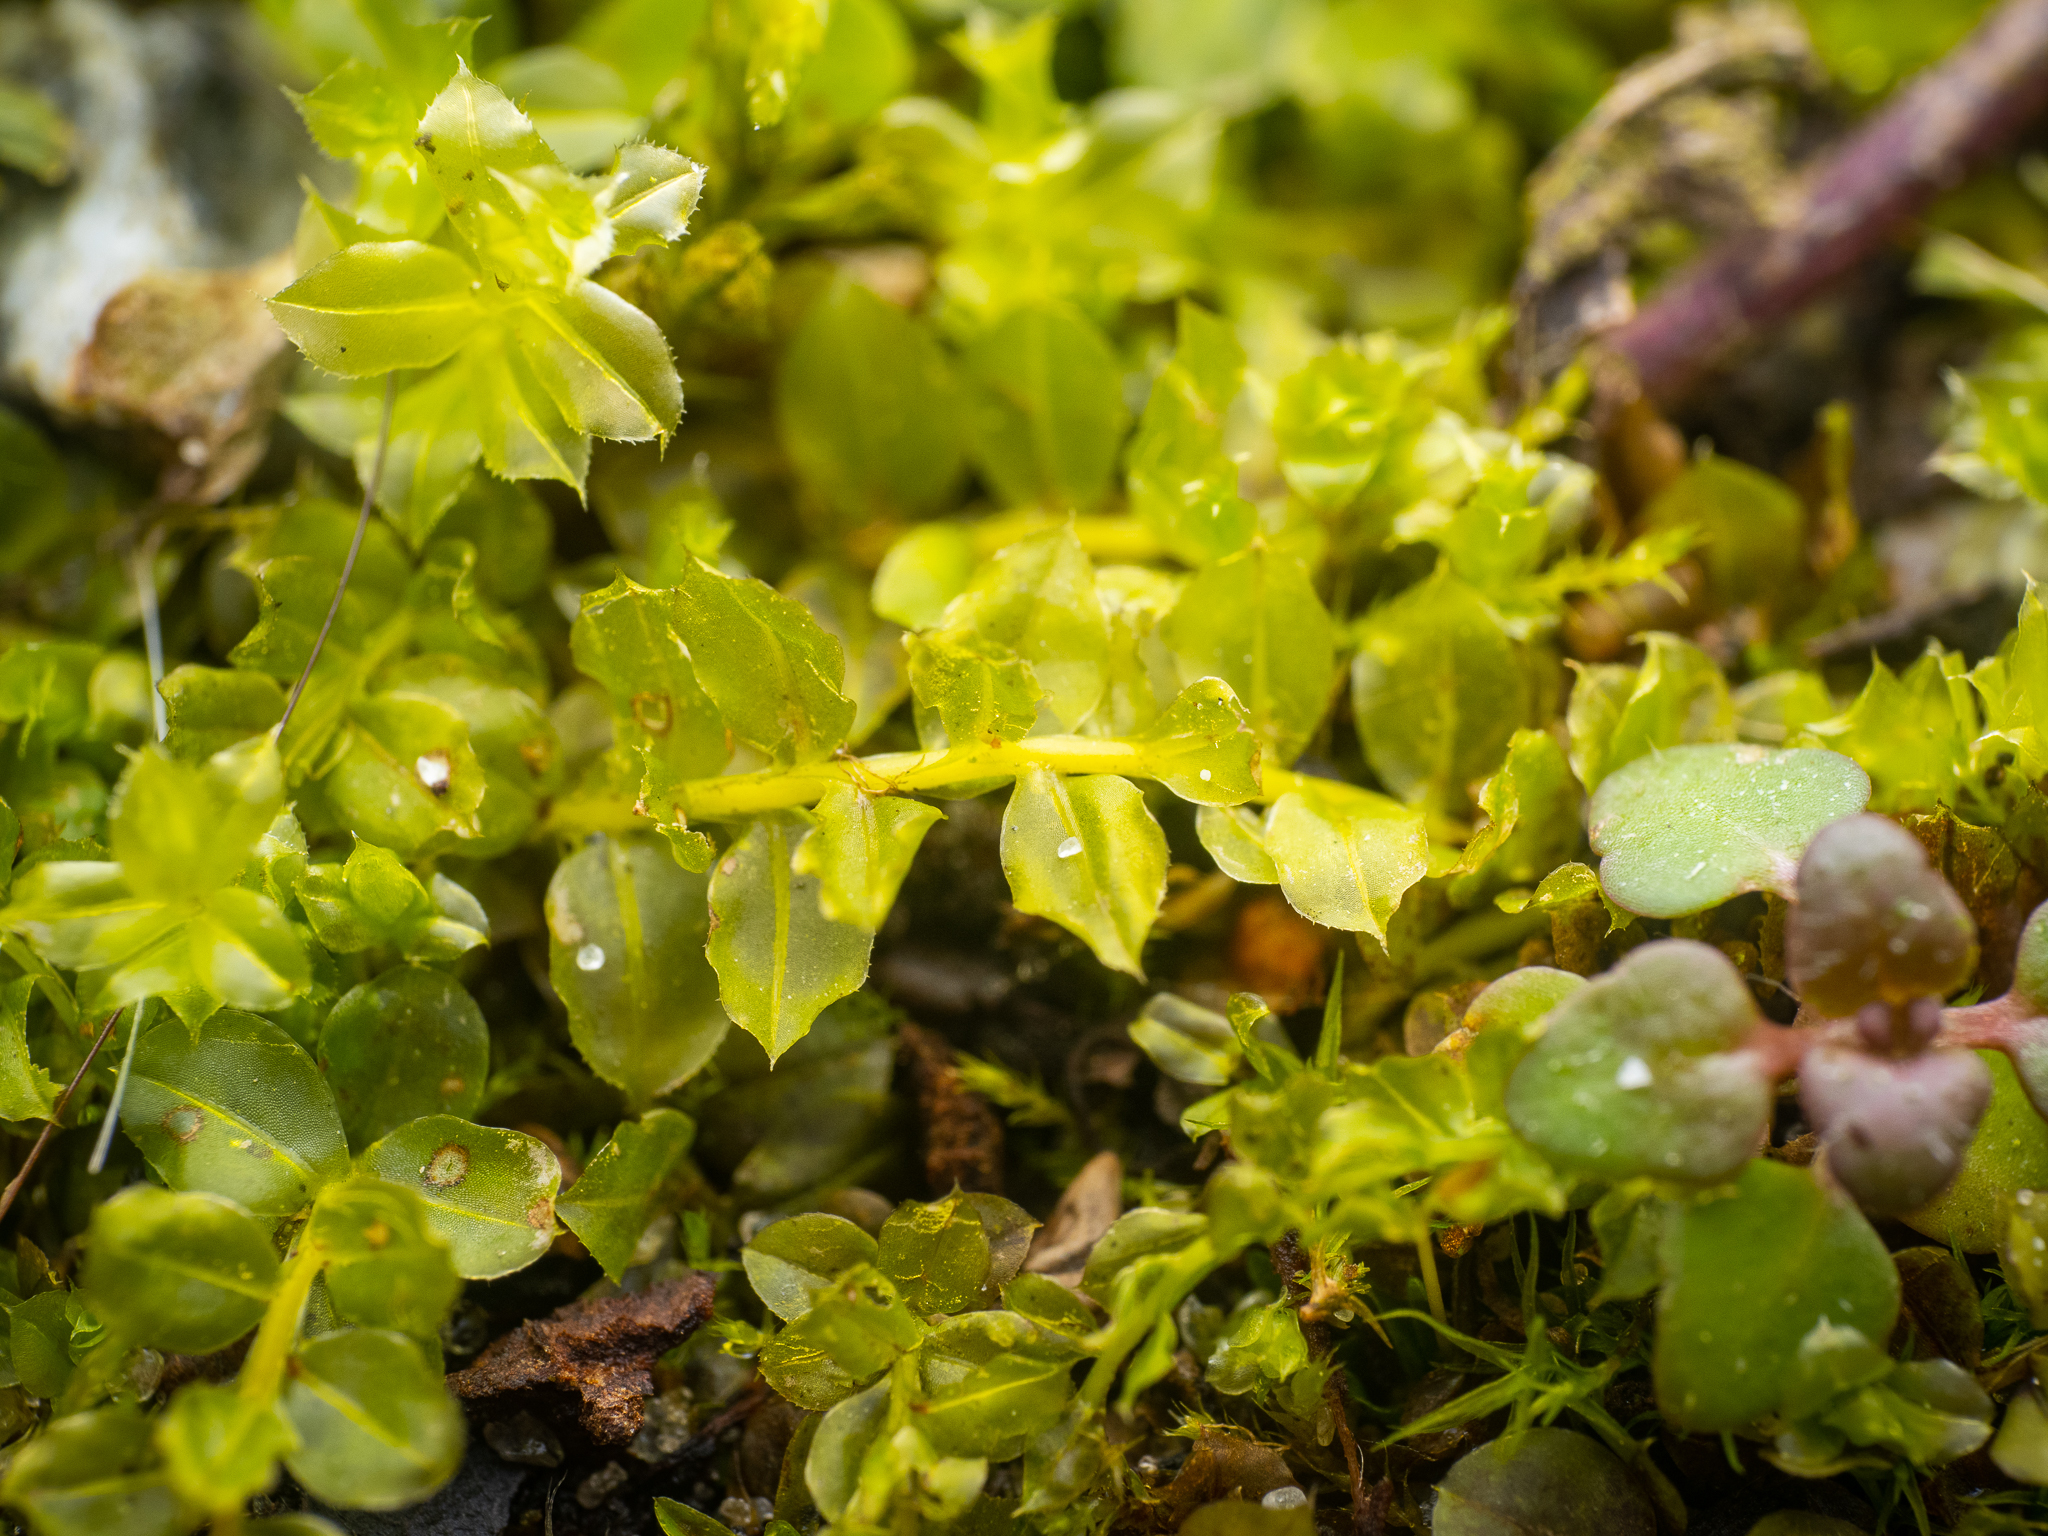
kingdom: Plantae
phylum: Bryophyta
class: Bryopsida
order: Bryales
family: Mniaceae
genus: Plagiomnium
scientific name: Plagiomnium cuspidatum
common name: Woodsy leafy moss
